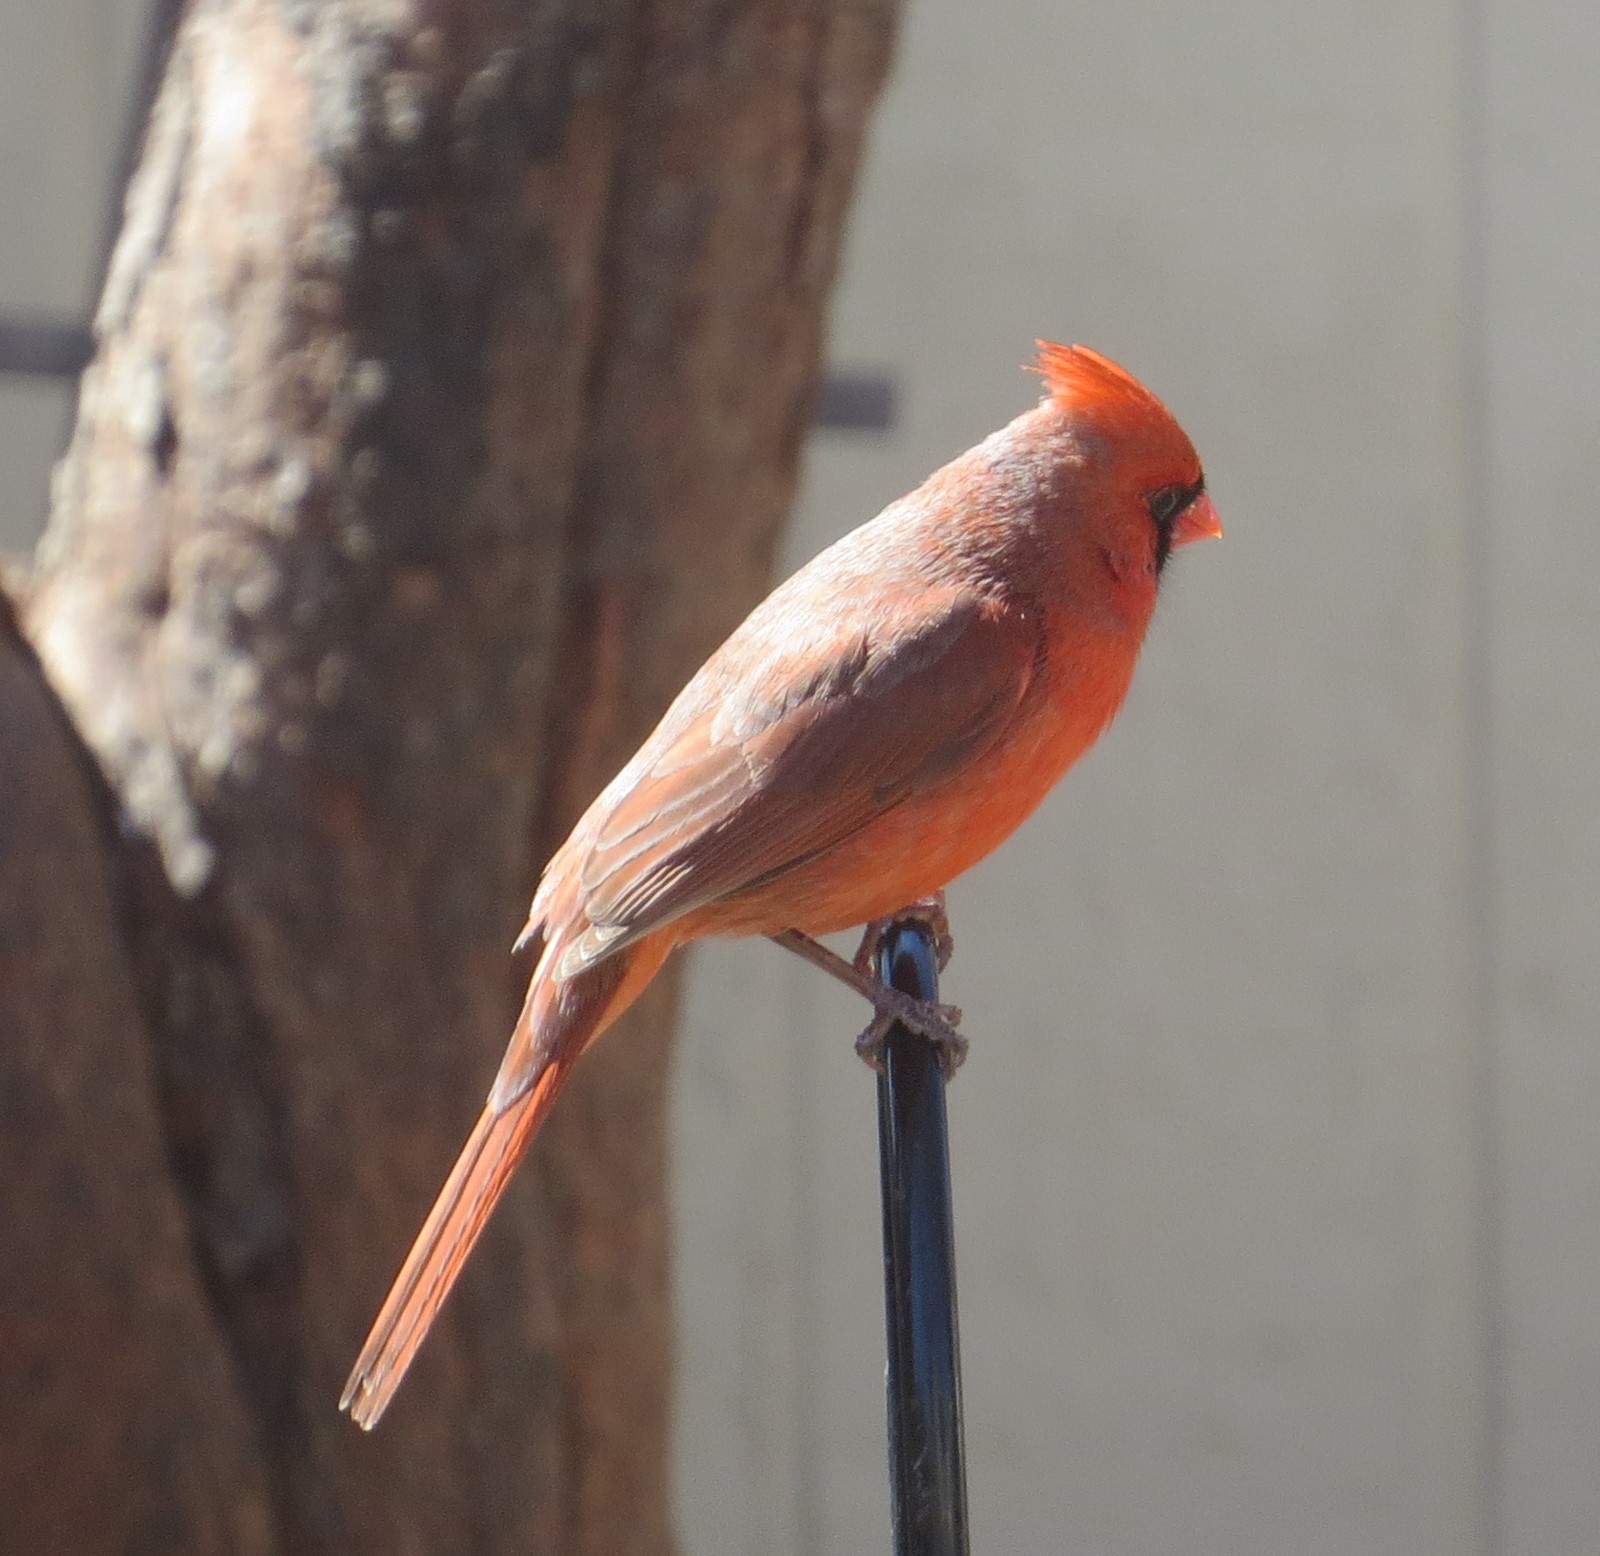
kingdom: Animalia
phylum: Chordata
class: Aves
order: Passeriformes
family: Cardinalidae
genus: Cardinalis
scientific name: Cardinalis cardinalis
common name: Northern cardinal
